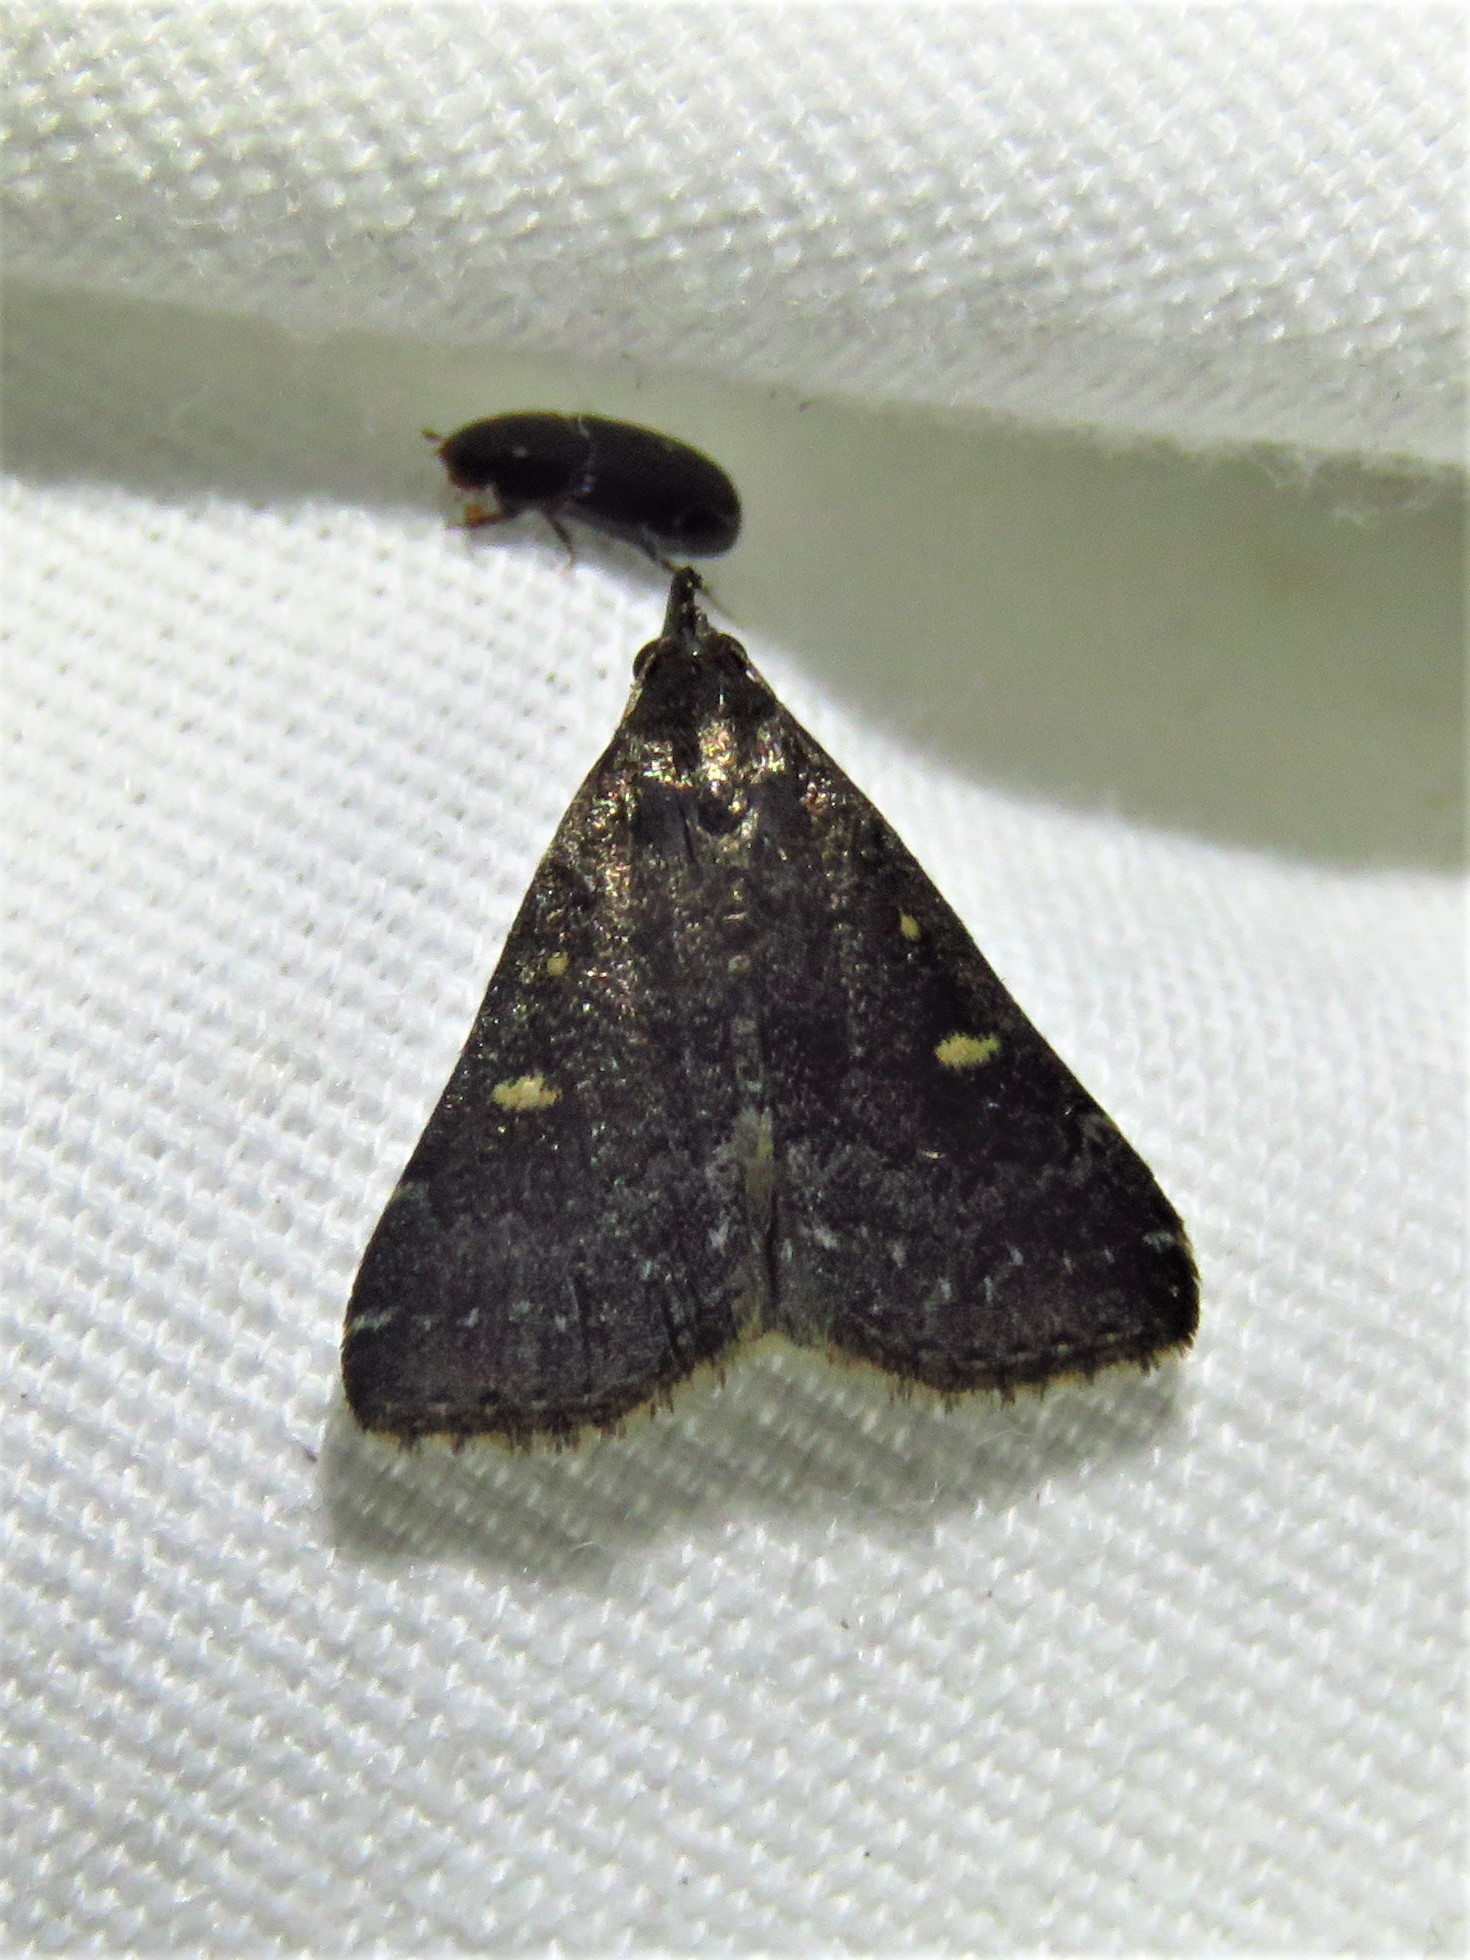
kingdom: Animalia
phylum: Arthropoda
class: Insecta
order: Lepidoptera
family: Erebidae
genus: Tetanolita
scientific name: Tetanolita mynesalis
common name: Smoky tetanolita moth
